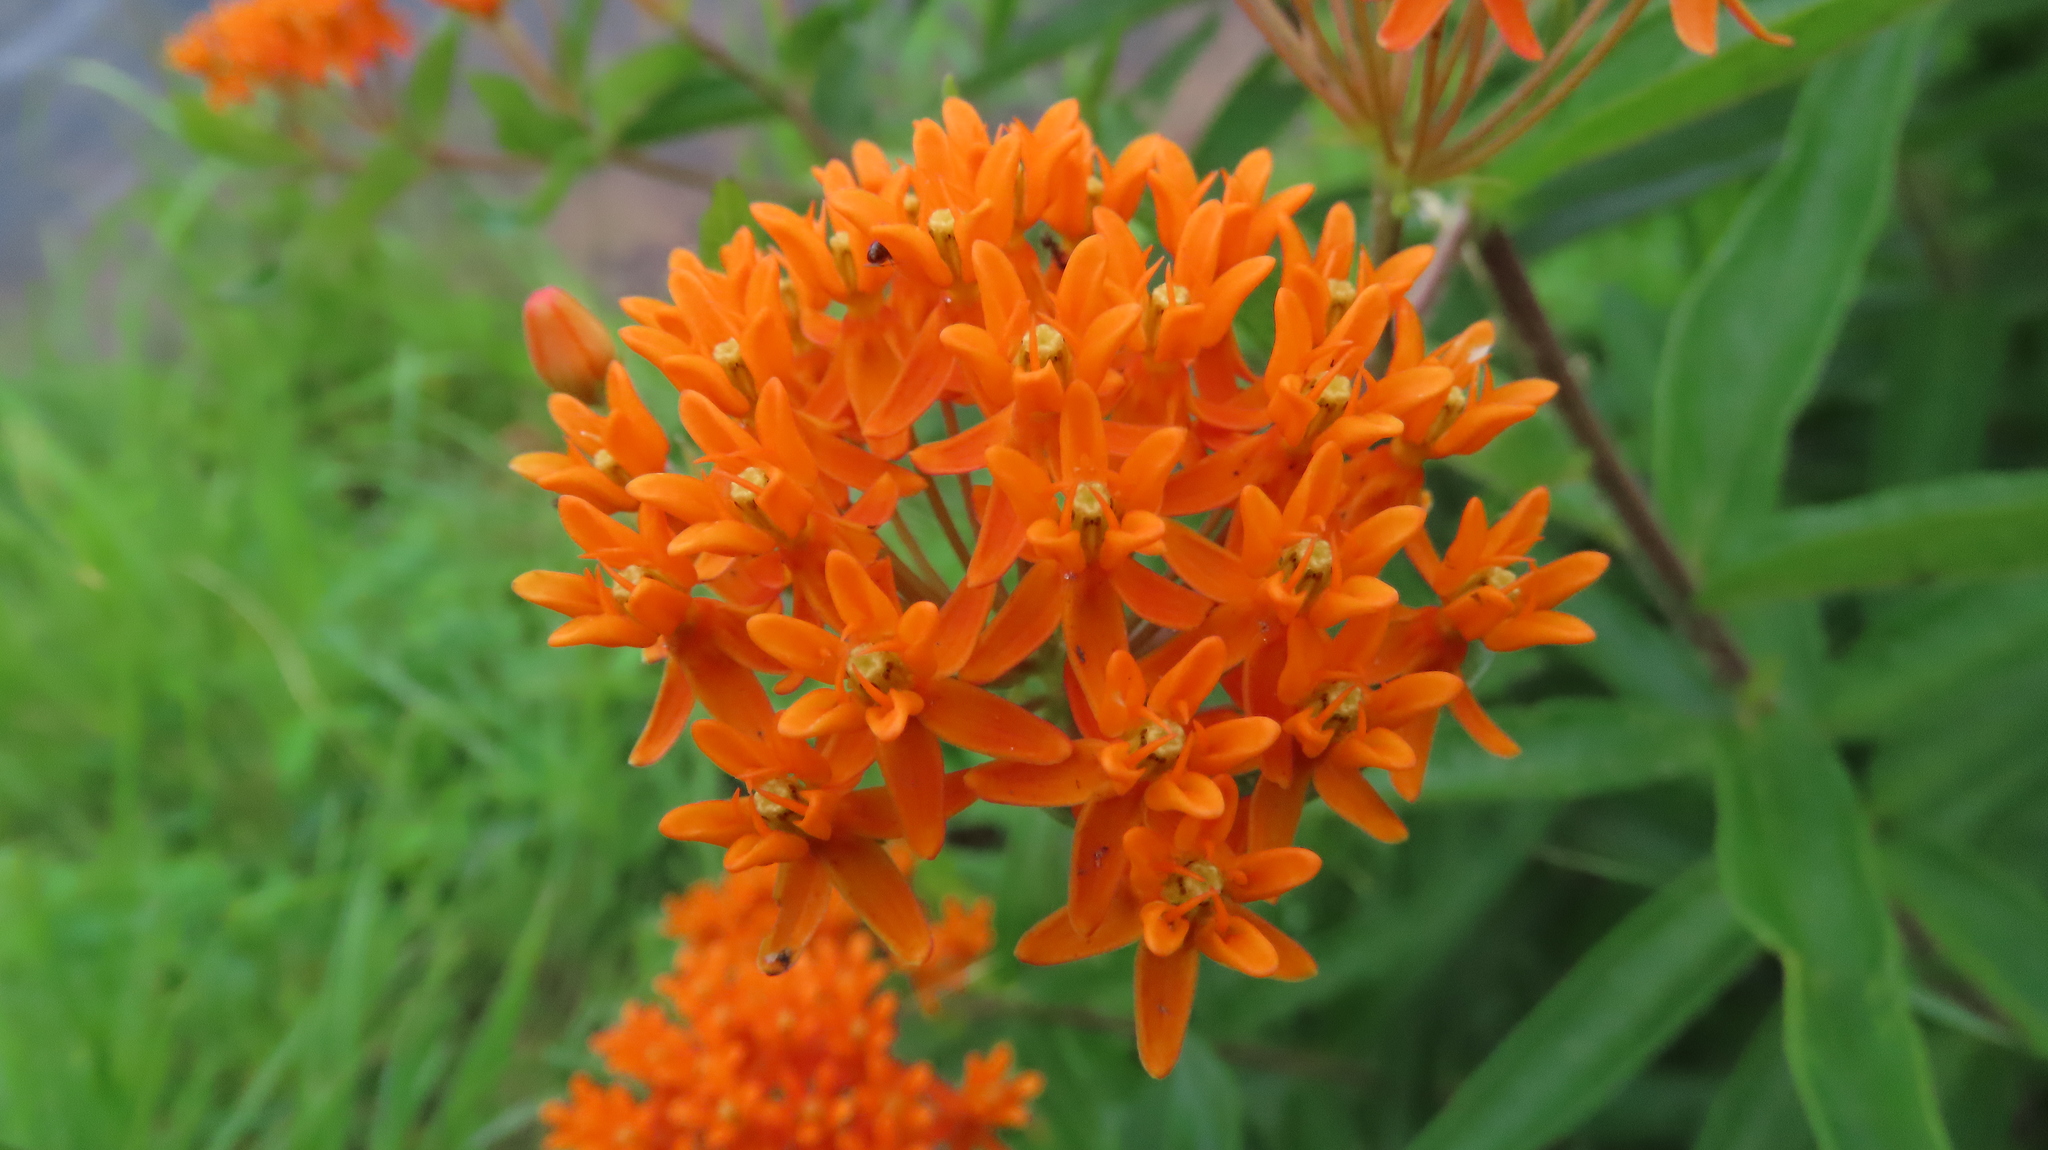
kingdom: Plantae
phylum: Tracheophyta
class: Magnoliopsida
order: Gentianales
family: Apocynaceae
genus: Asclepias
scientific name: Asclepias tuberosa
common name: Butterfly milkweed
